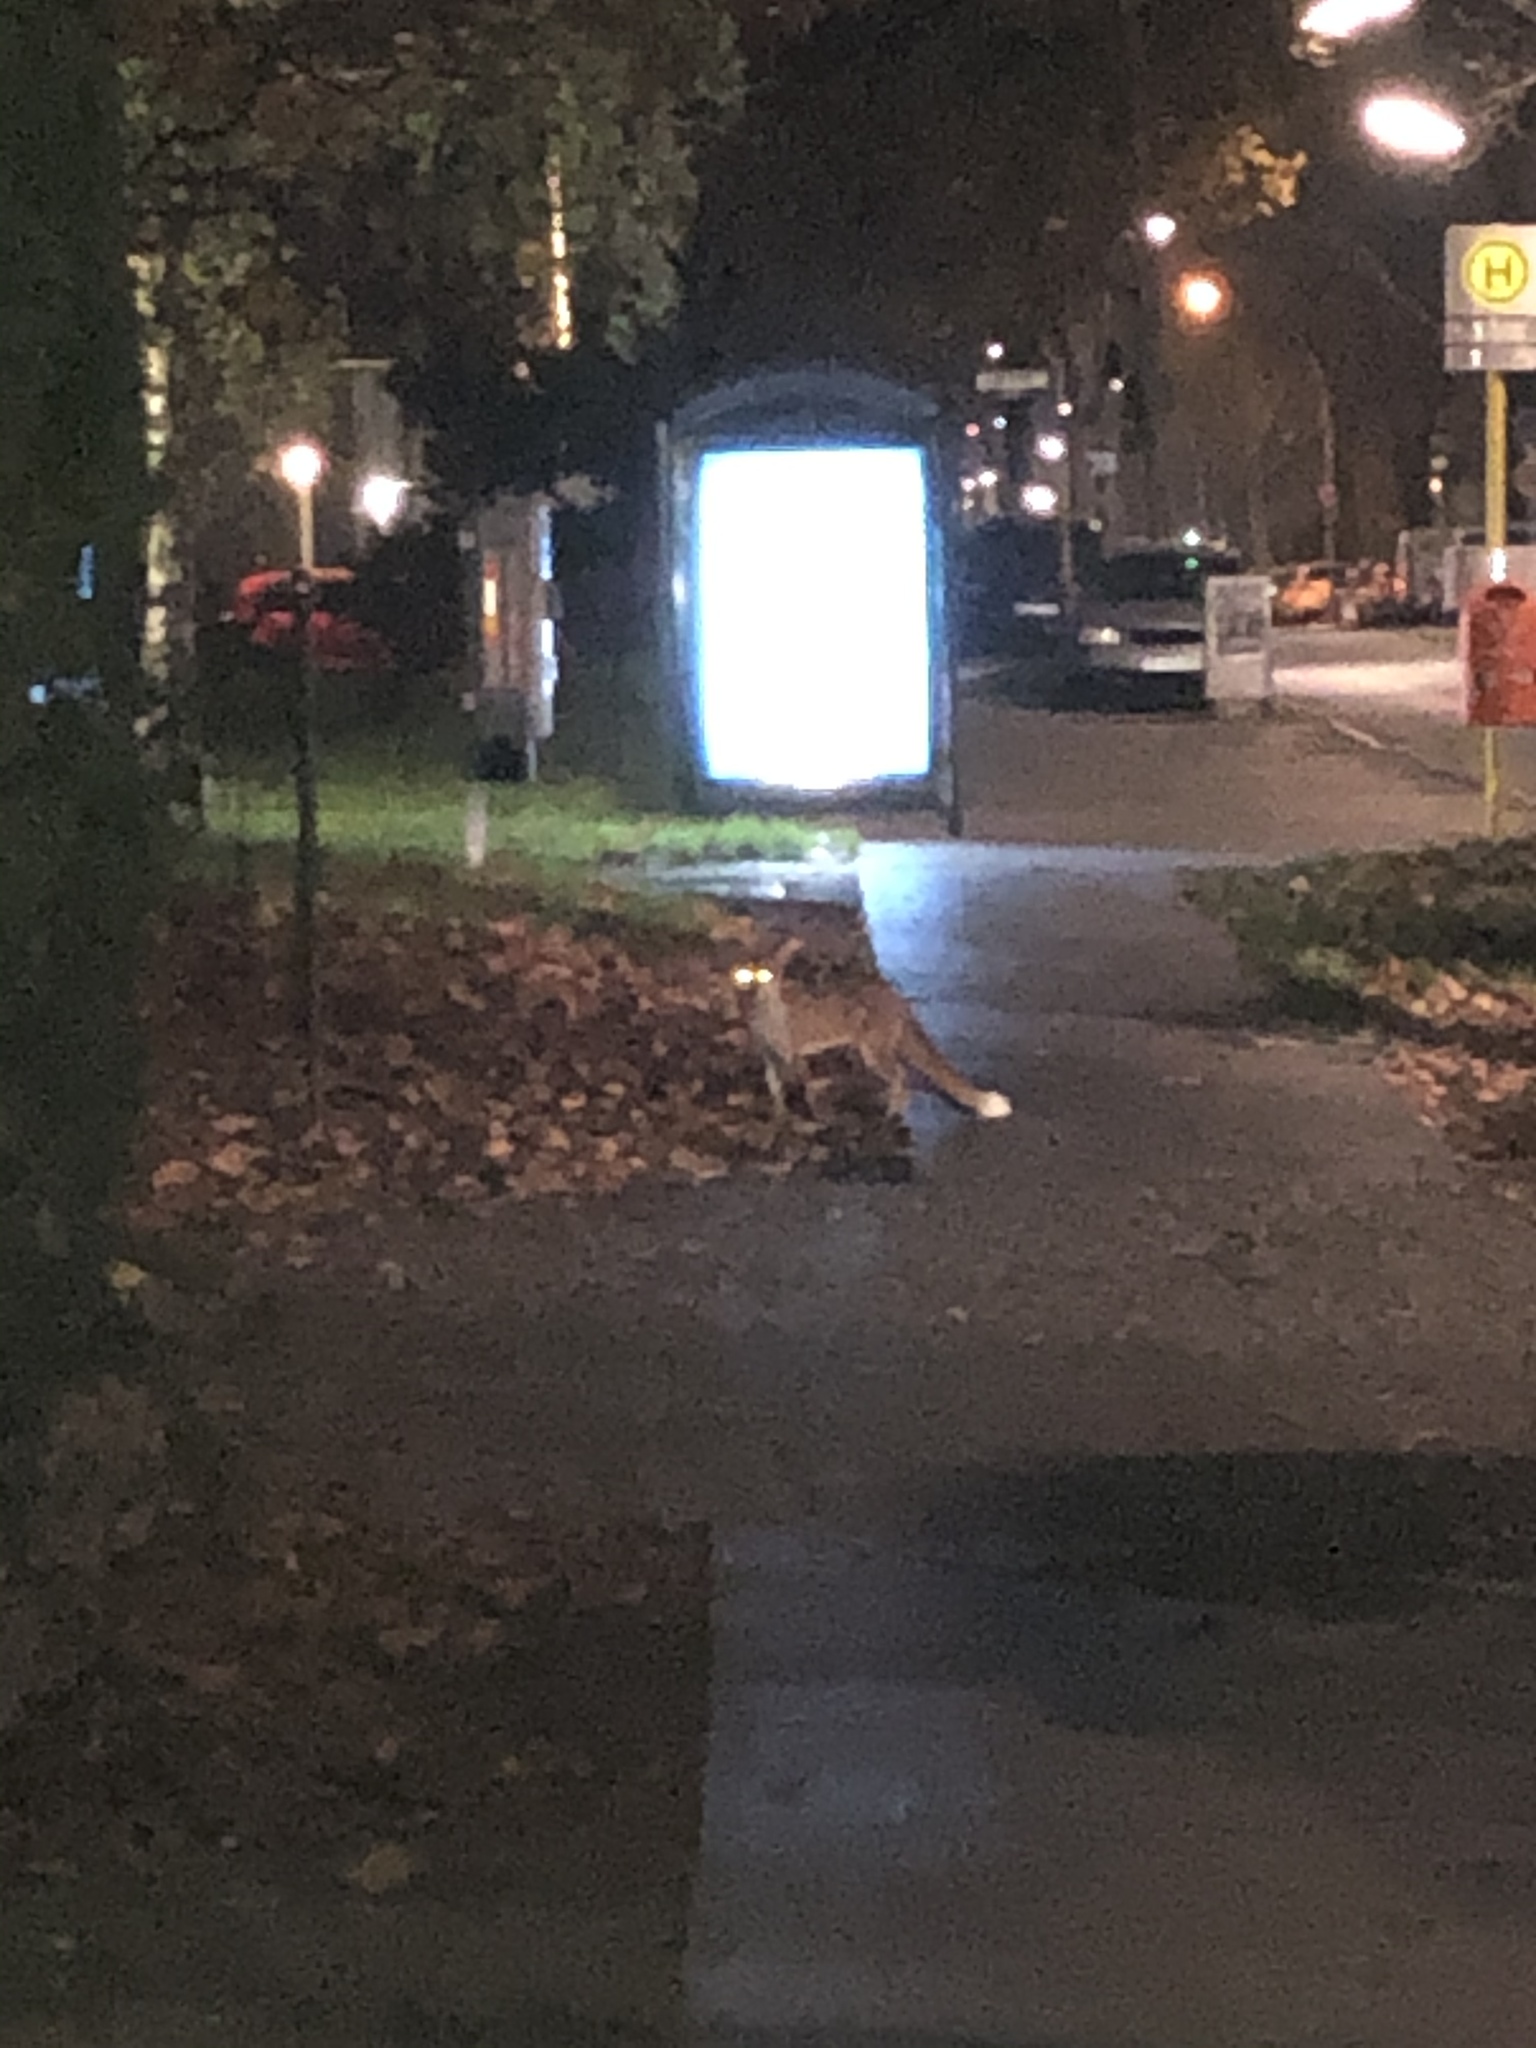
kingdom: Animalia
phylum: Chordata
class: Mammalia
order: Carnivora
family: Canidae
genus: Vulpes
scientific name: Vulpes vulpes
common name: Red fox
